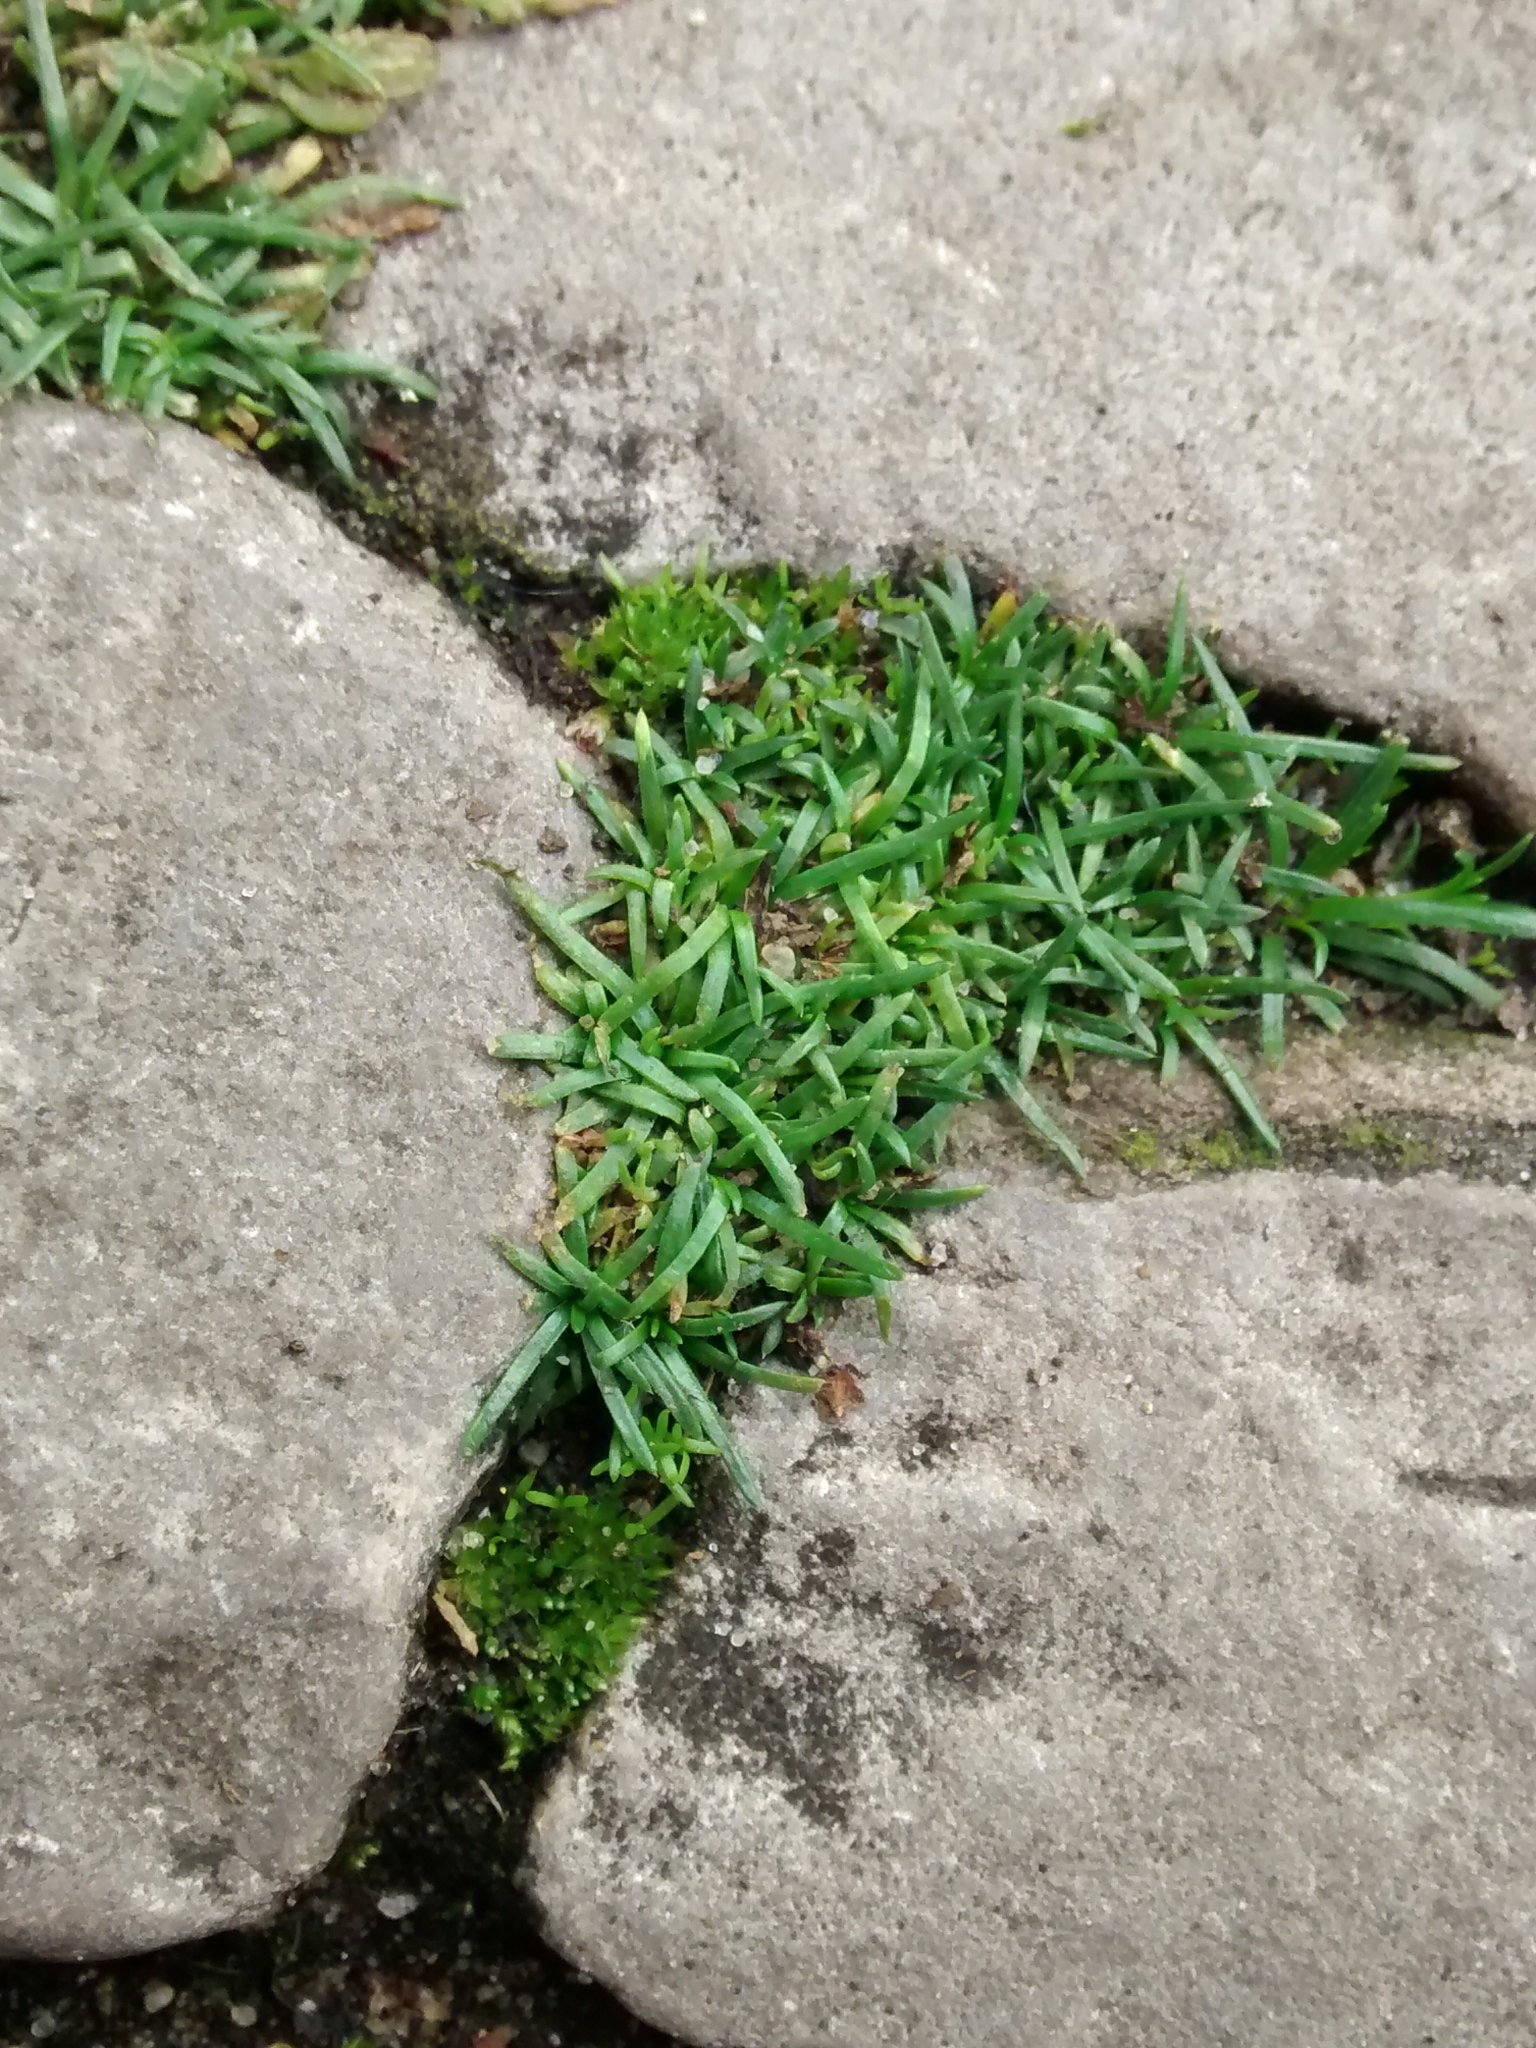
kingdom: Plantae
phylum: Tracheophyta
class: Magnoliopsida
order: Caryophyllales
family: Caryophyllaceae
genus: Sagina
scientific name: Sagina procumbens
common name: Procumbent pearlwort
